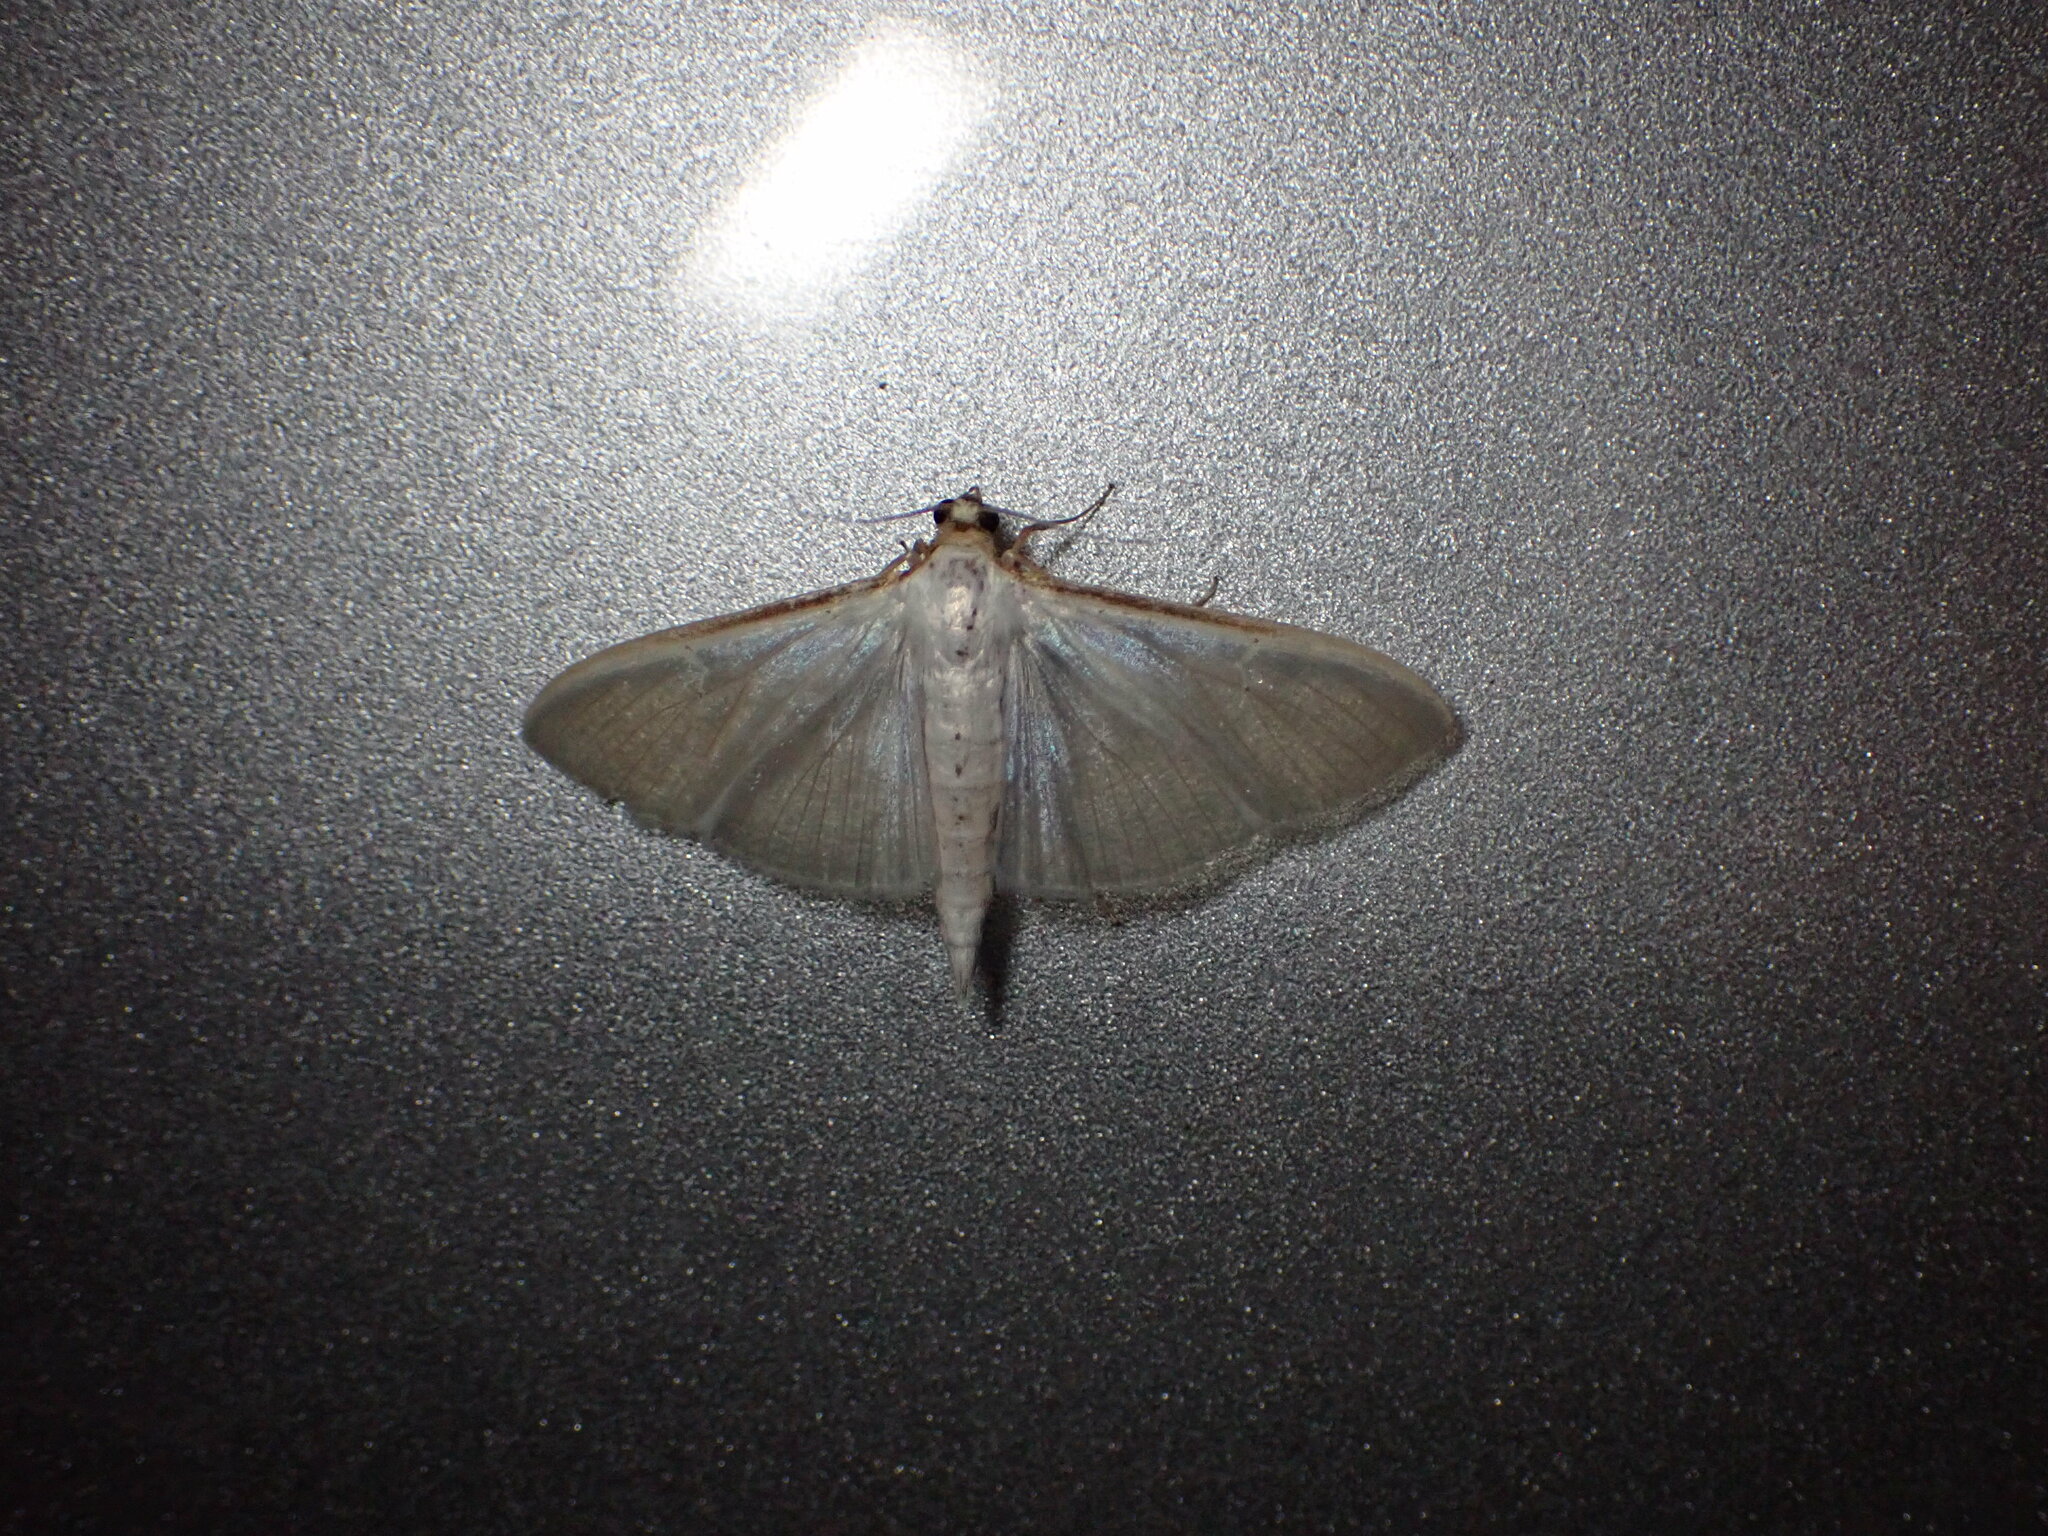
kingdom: Animalia
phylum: Arthropoda
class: Insecta
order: Lepidoptera
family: Crambidae
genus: Palpita
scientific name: Palpita vitrealis
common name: Olive-tree pearl
